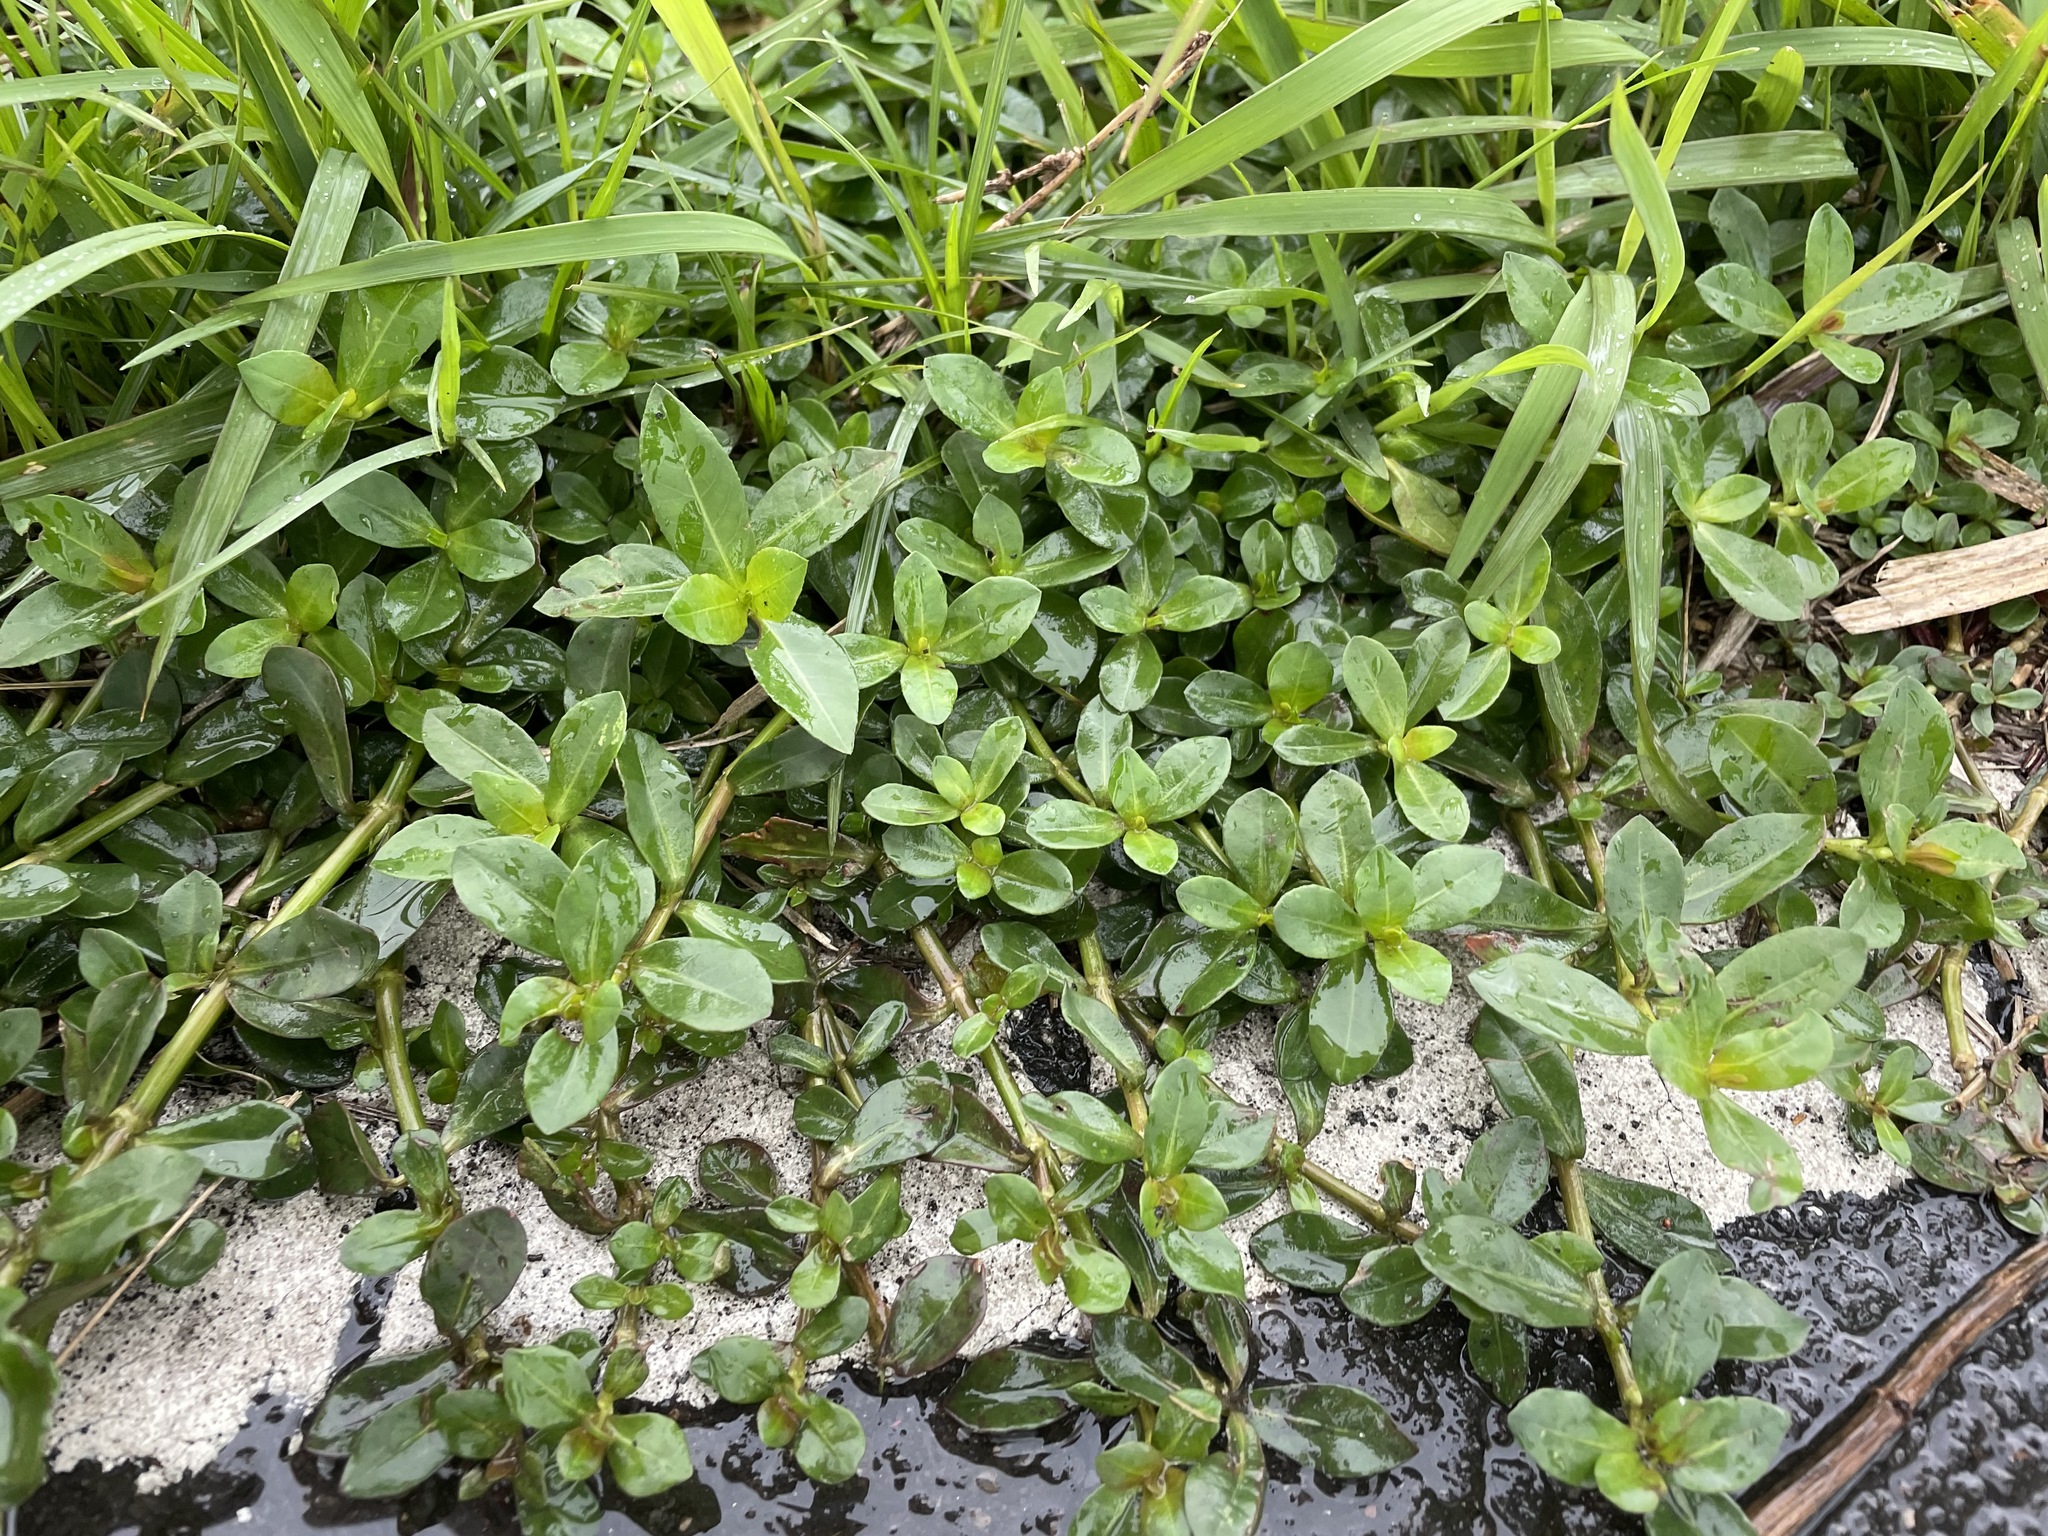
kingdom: Plantae
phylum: Tracheophyta
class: Magnoliopsida
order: Caryophyllales
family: Amaranthaceae
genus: Alternanthera
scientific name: Alternanthera philoxeroides
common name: Alligatorweed
